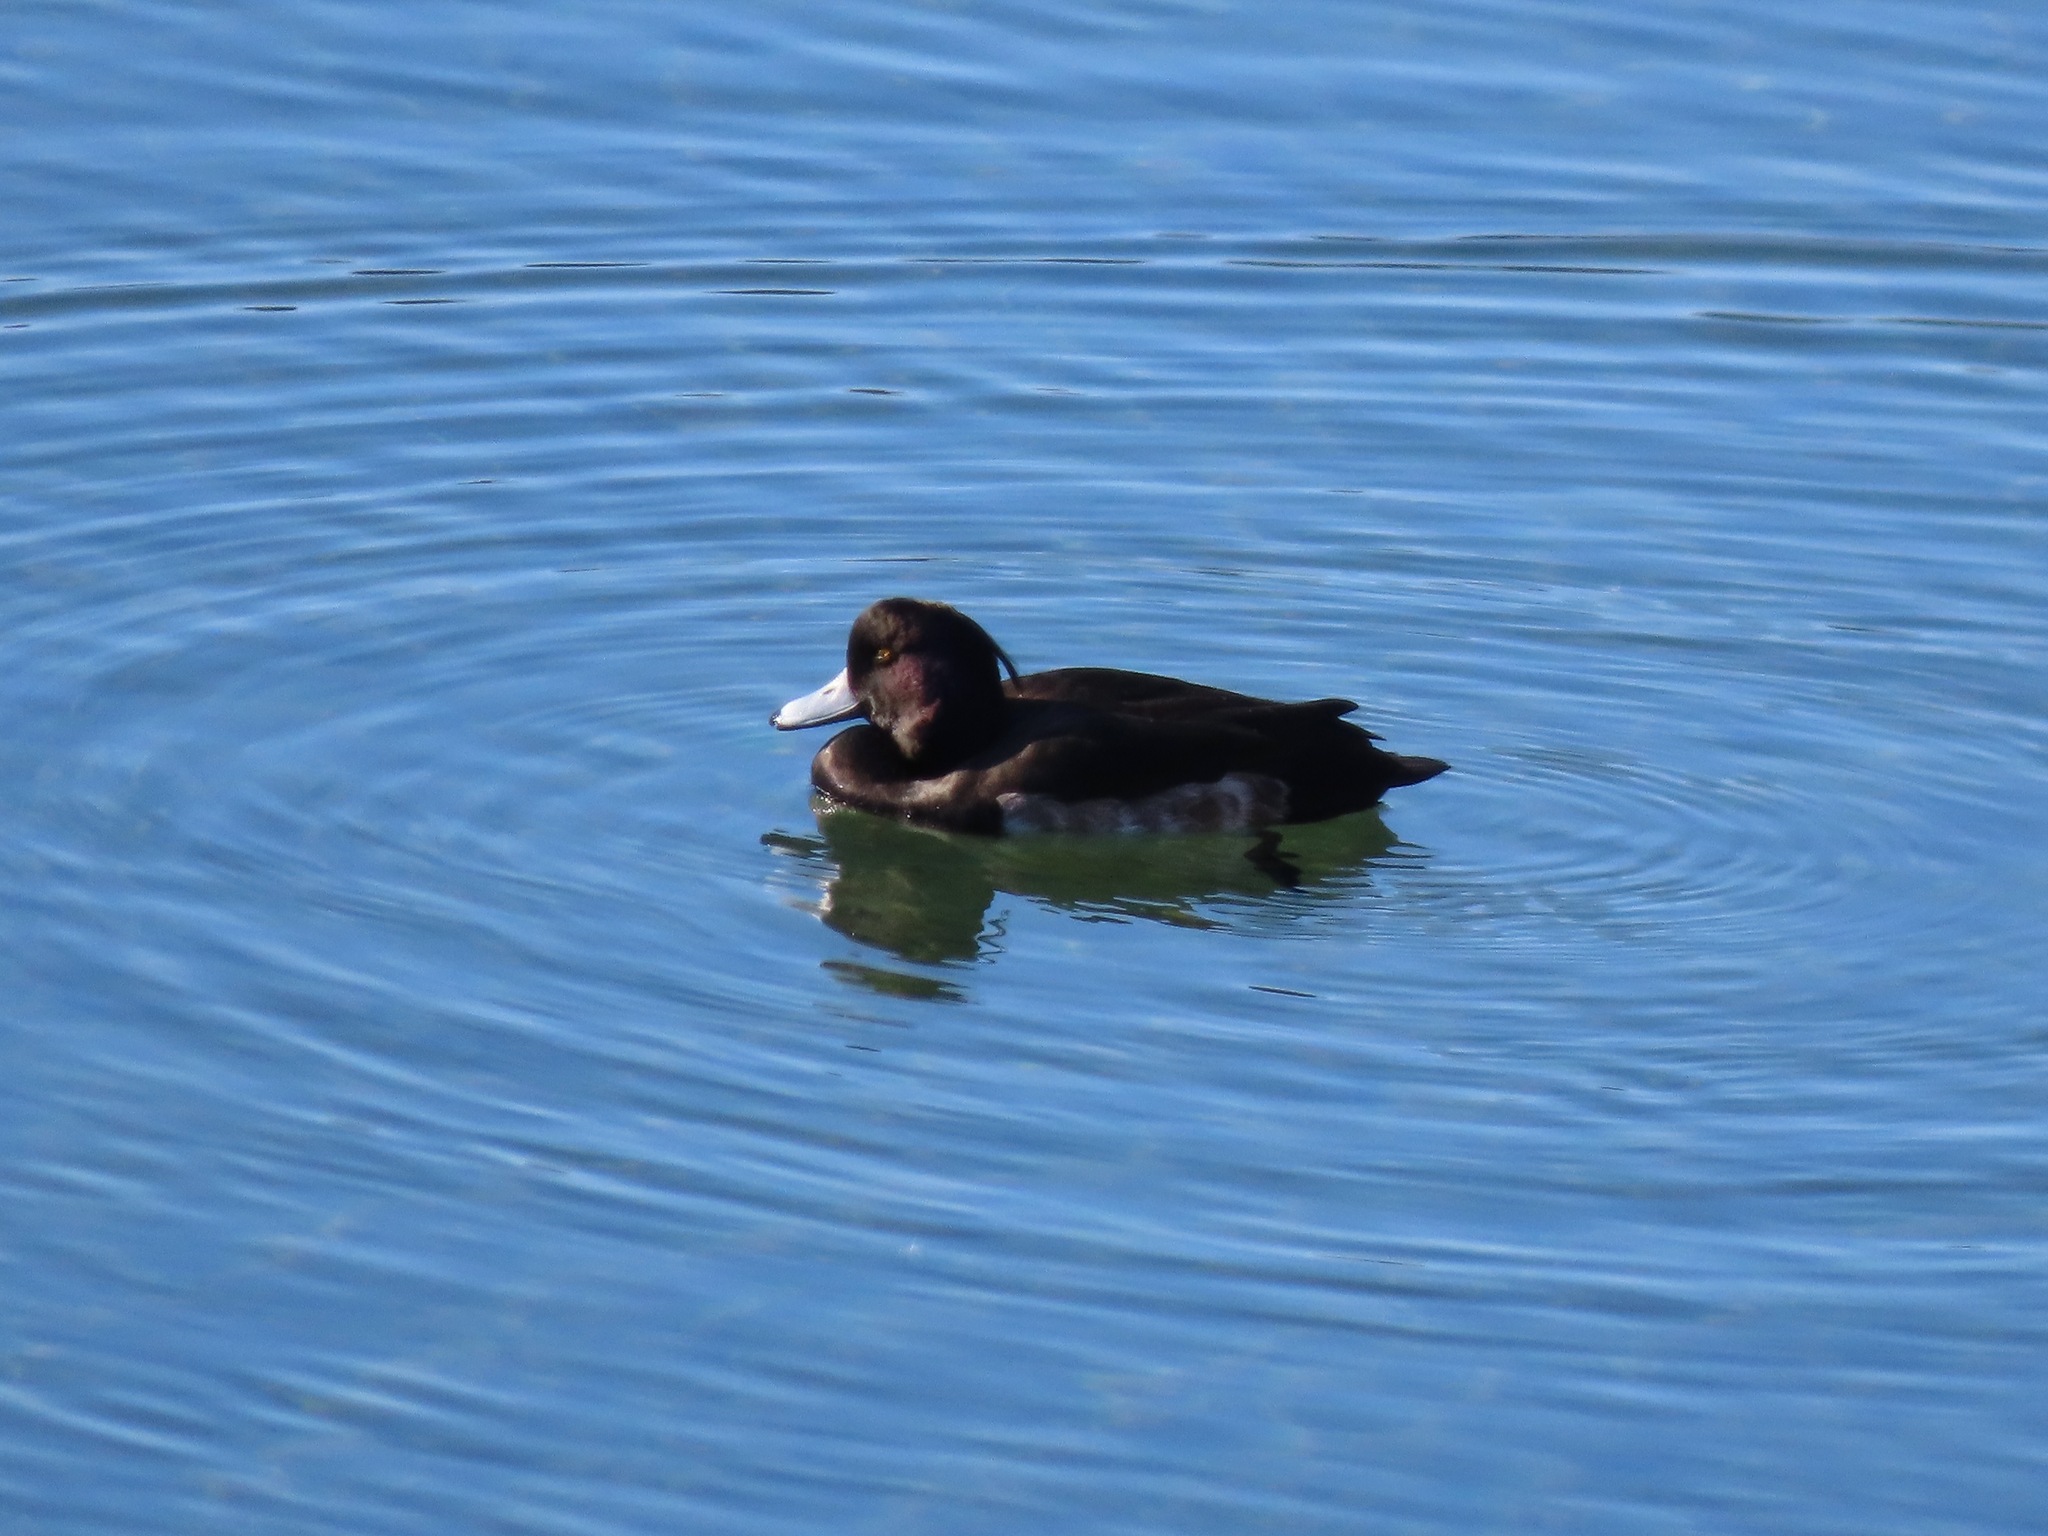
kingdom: Animalia
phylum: Chordata
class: Aves
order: Anseriformes
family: Anatidae
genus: Aythya
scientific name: Aythya fuligula
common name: Tufted duck
